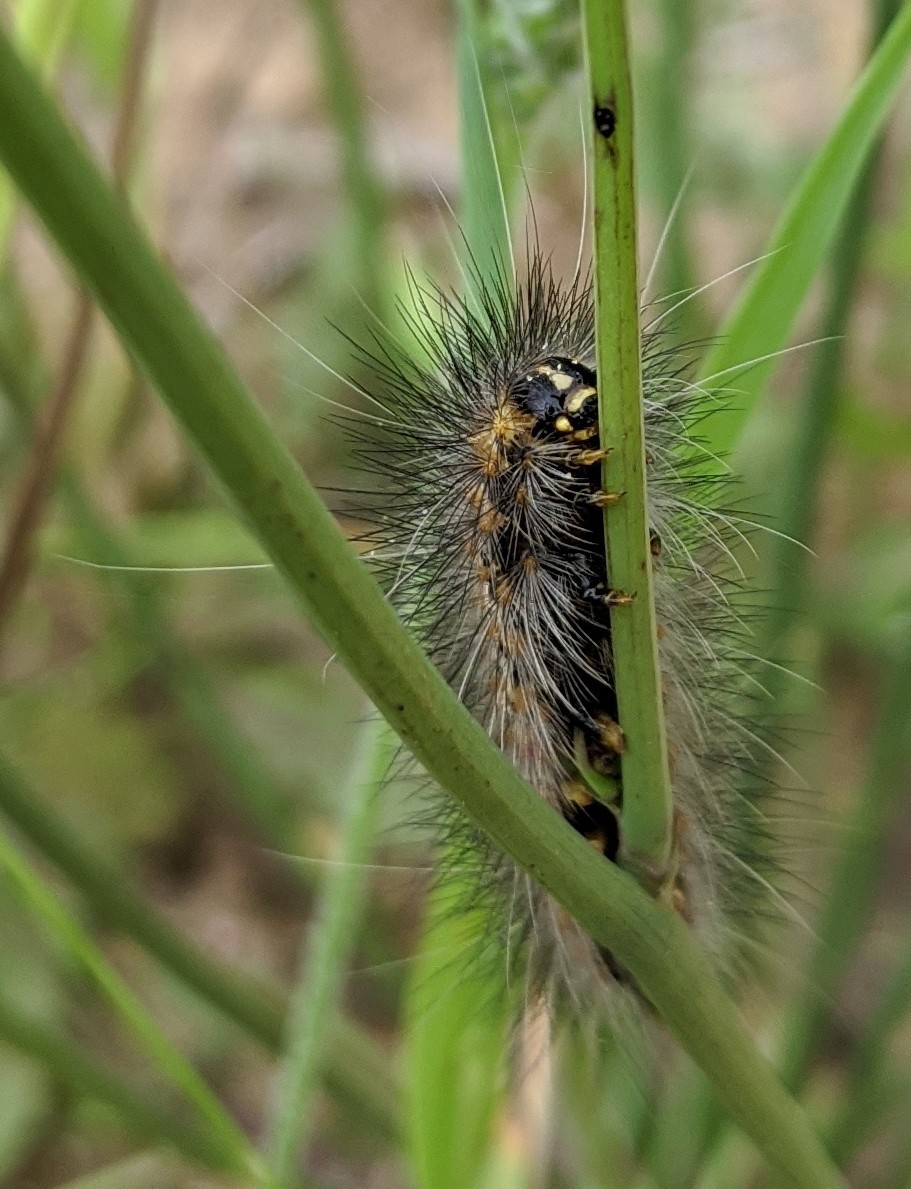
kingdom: Animalia
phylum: Arthropoda
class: Insecta
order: Lepidoptera
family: Erebidae
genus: Estigmene
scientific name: Estigmene acrea
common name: Salt marsh moth
